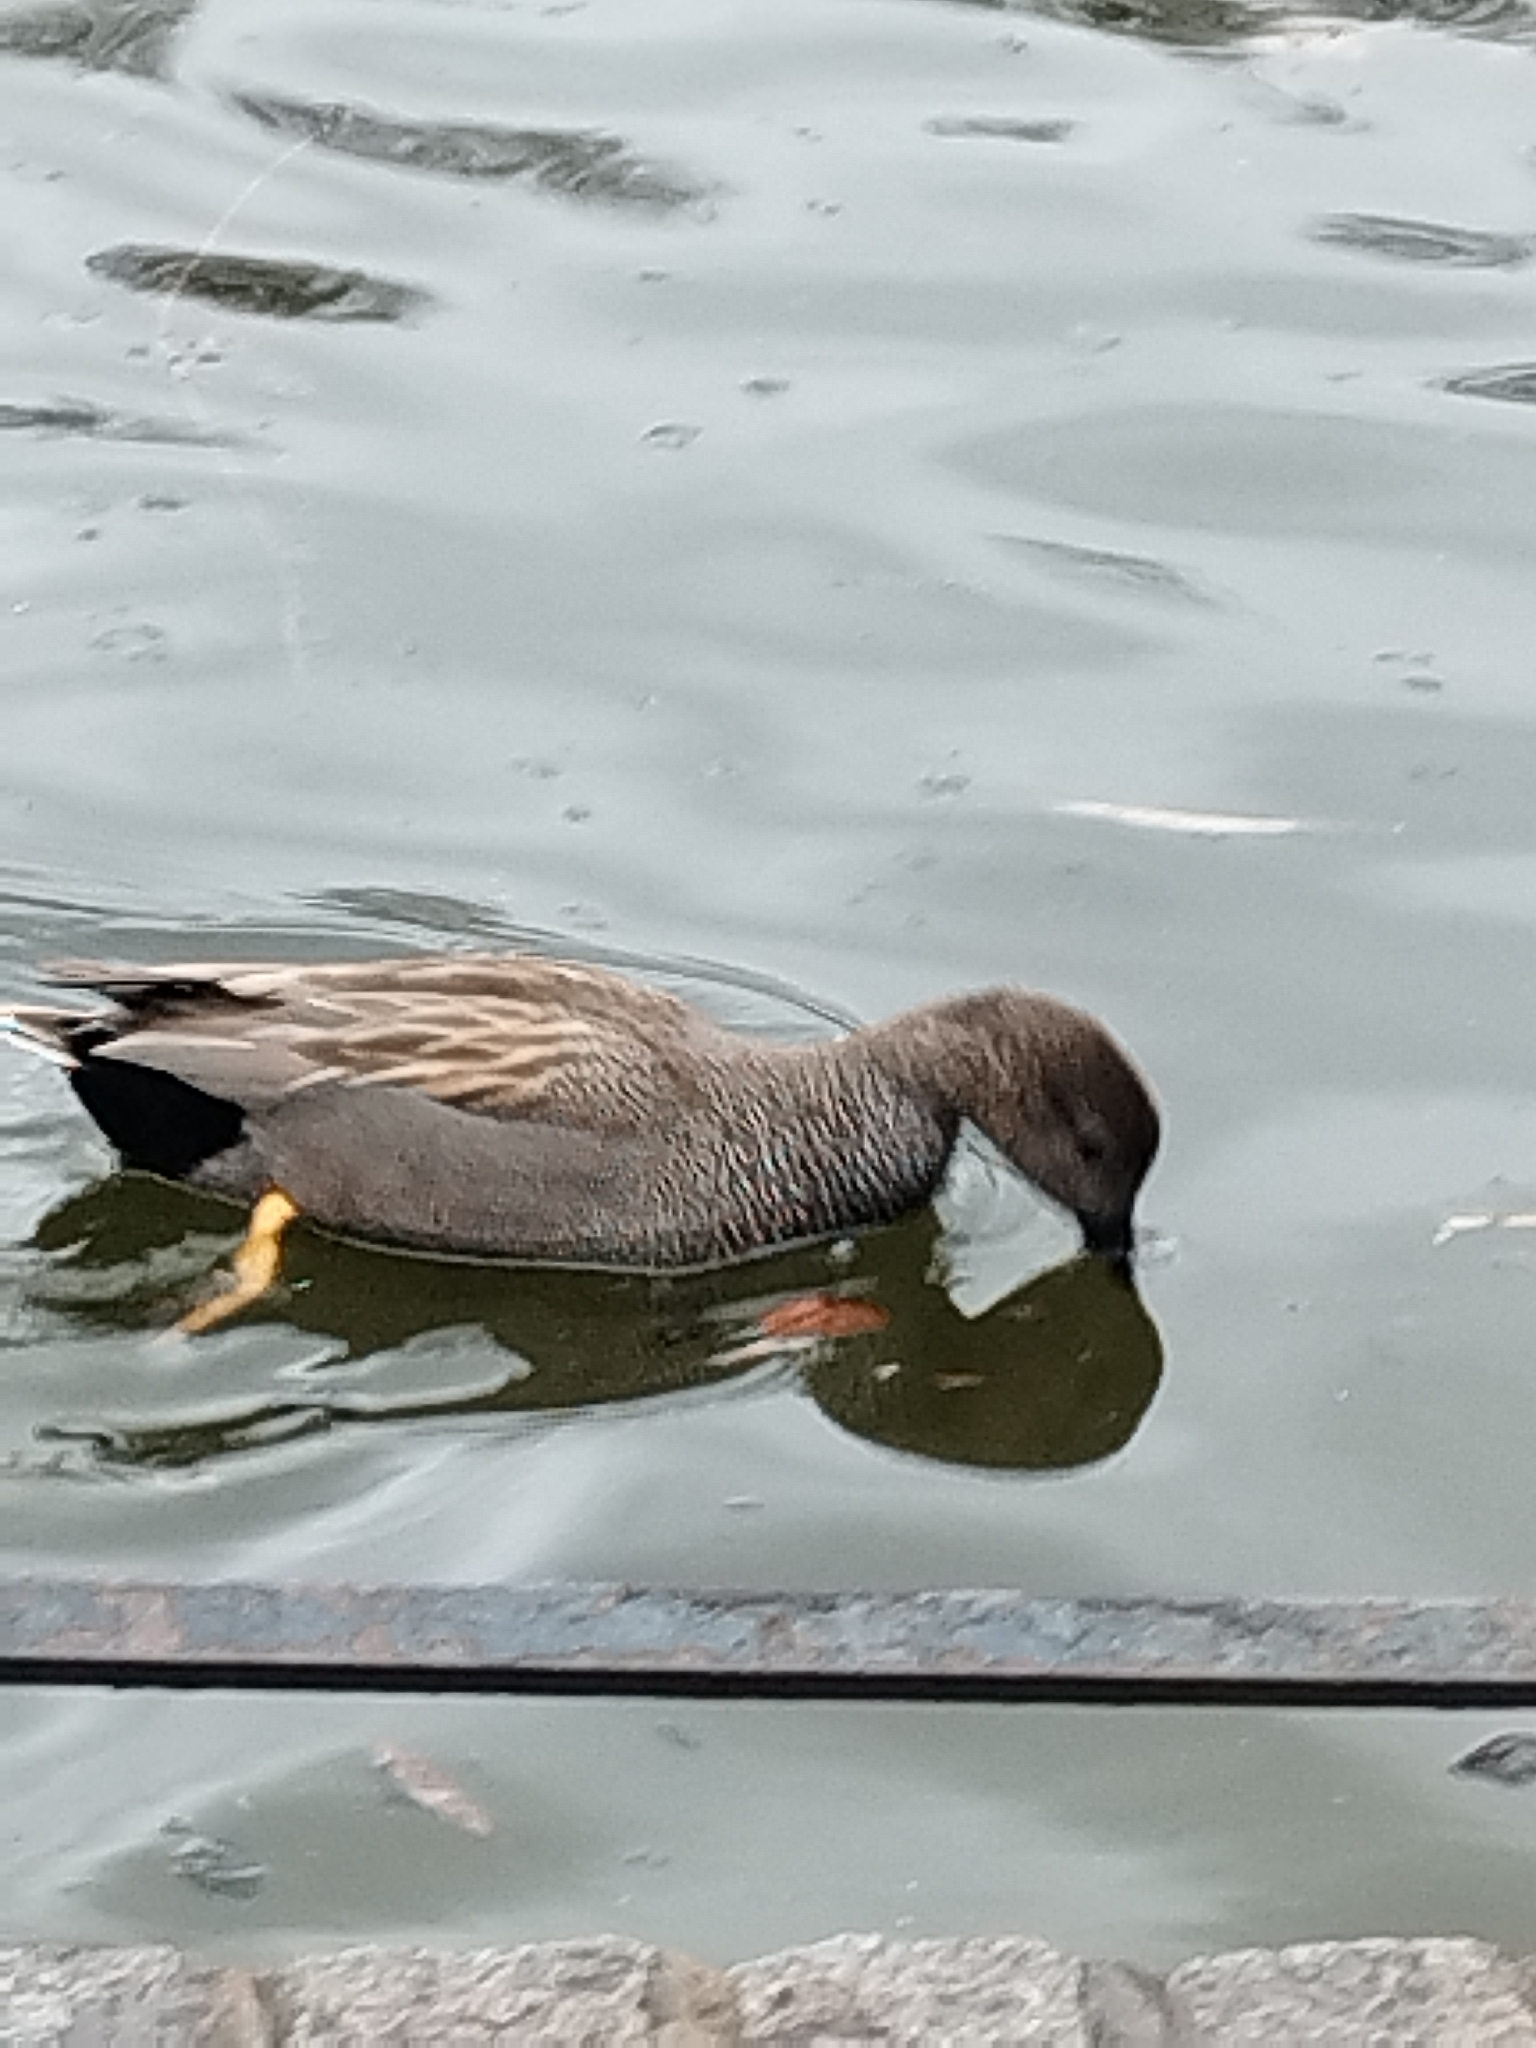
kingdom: Animalia
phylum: Chordata
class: Aves
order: Anseriformes
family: Anatidae
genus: Mareca
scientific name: Mareca strepera
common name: Gadwall
